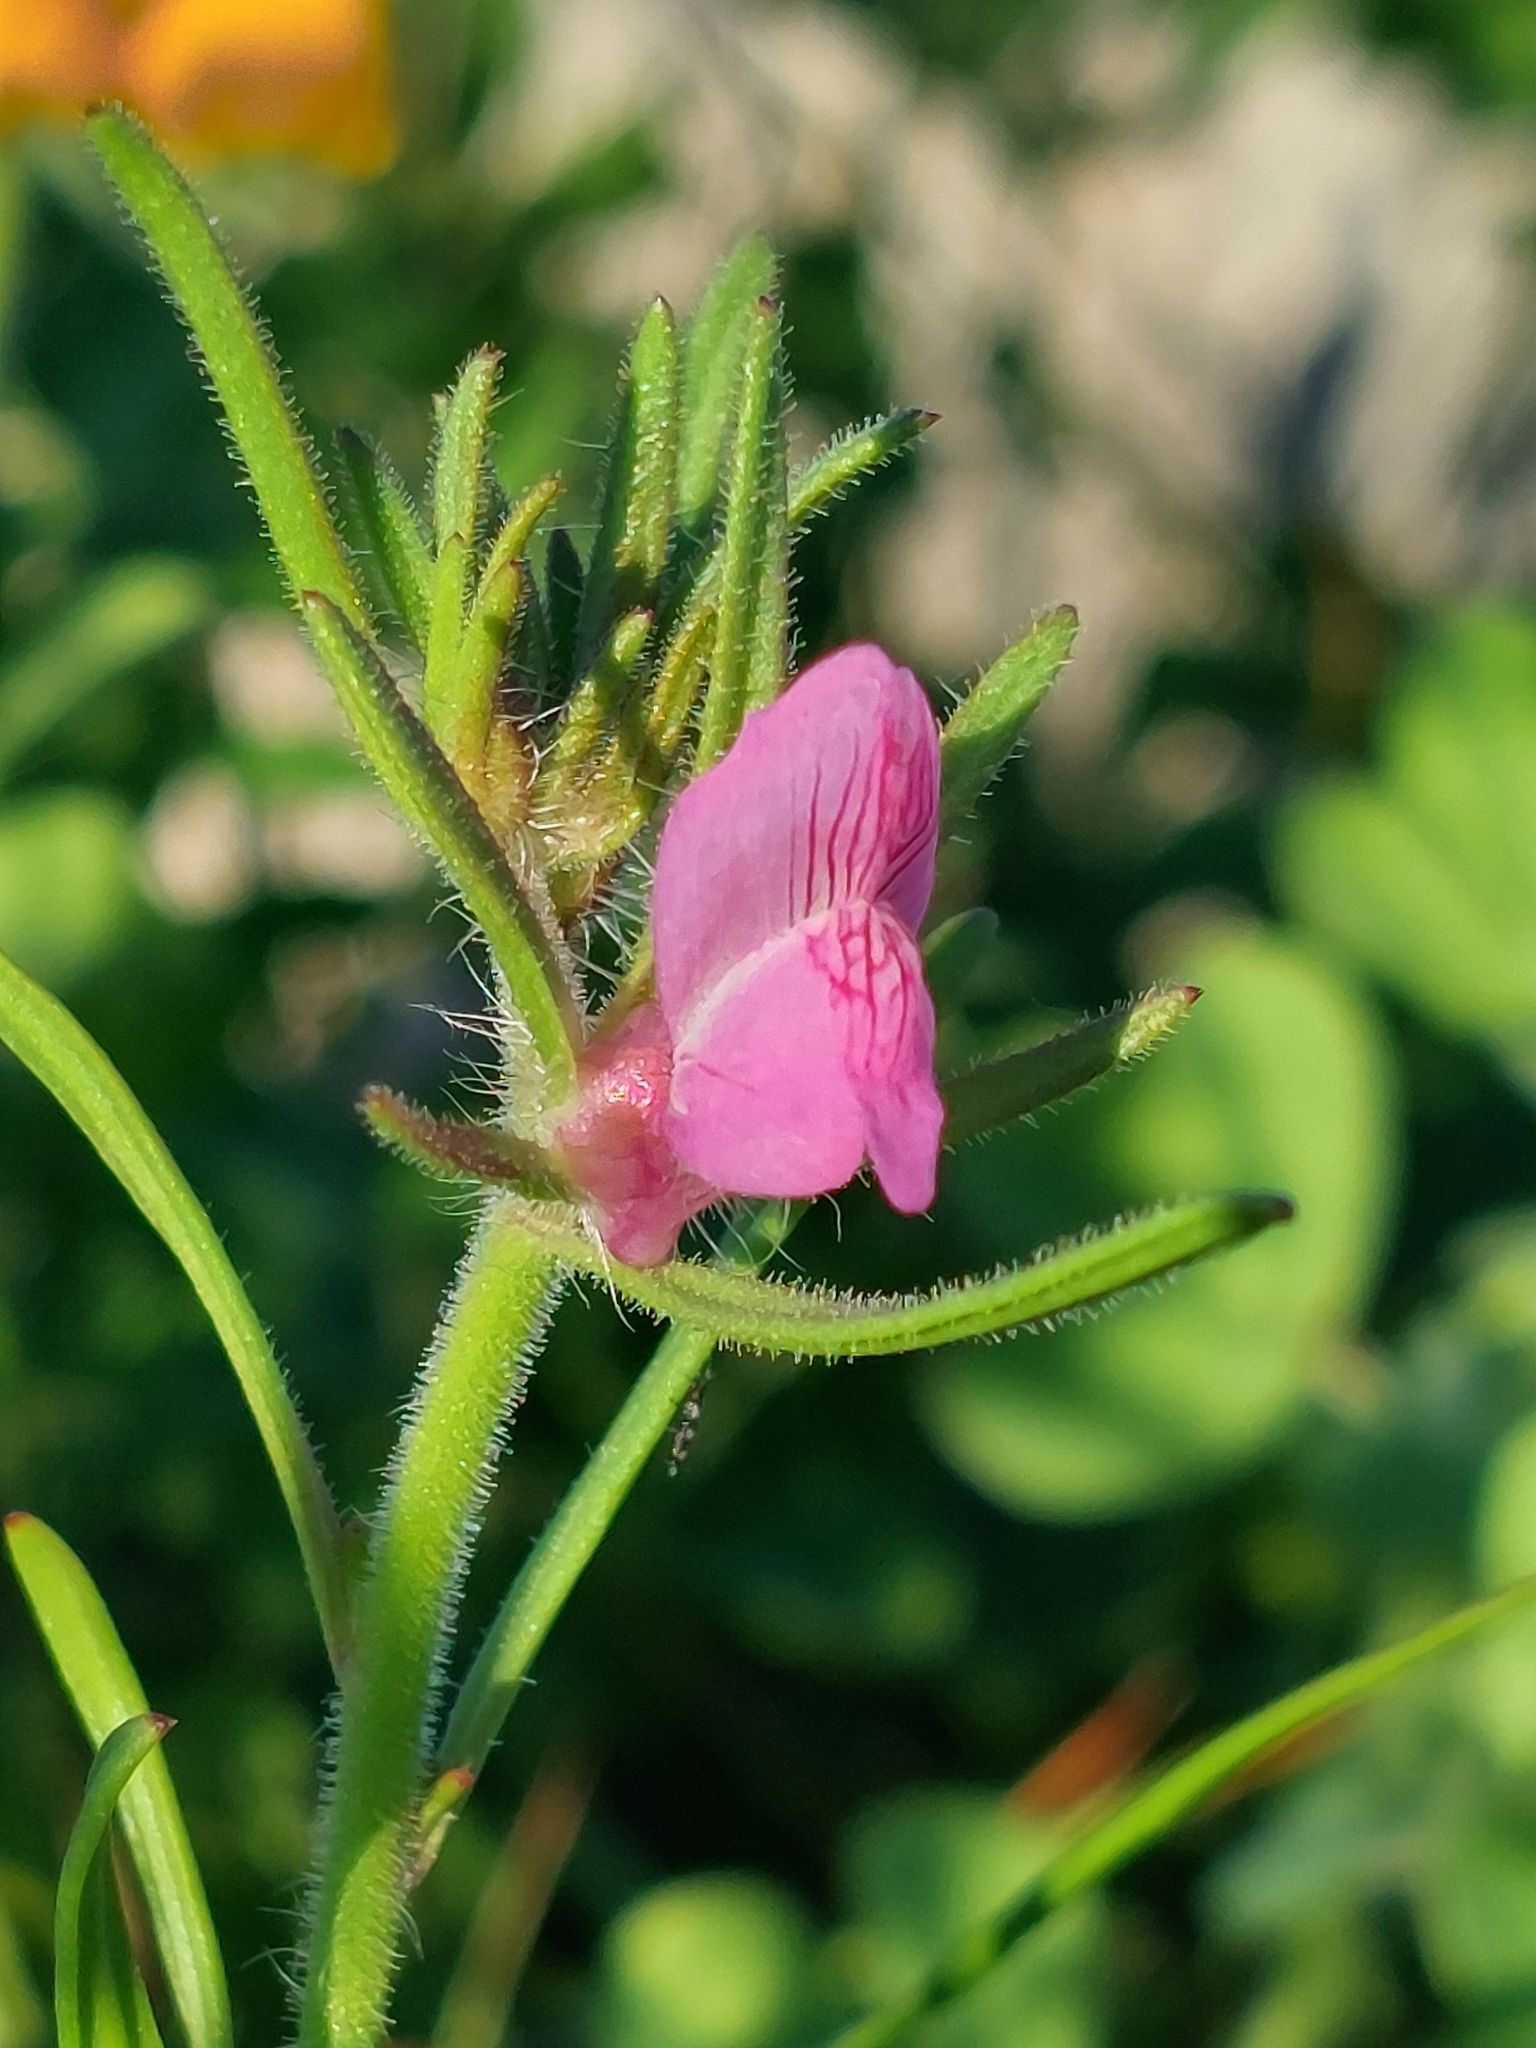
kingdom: Plantae
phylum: Tracheophyta
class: Magnoliopsida
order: Lamiales
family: Plantaginaceae
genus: Misopates
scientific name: Misopates orontium
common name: Weasel's-snout
